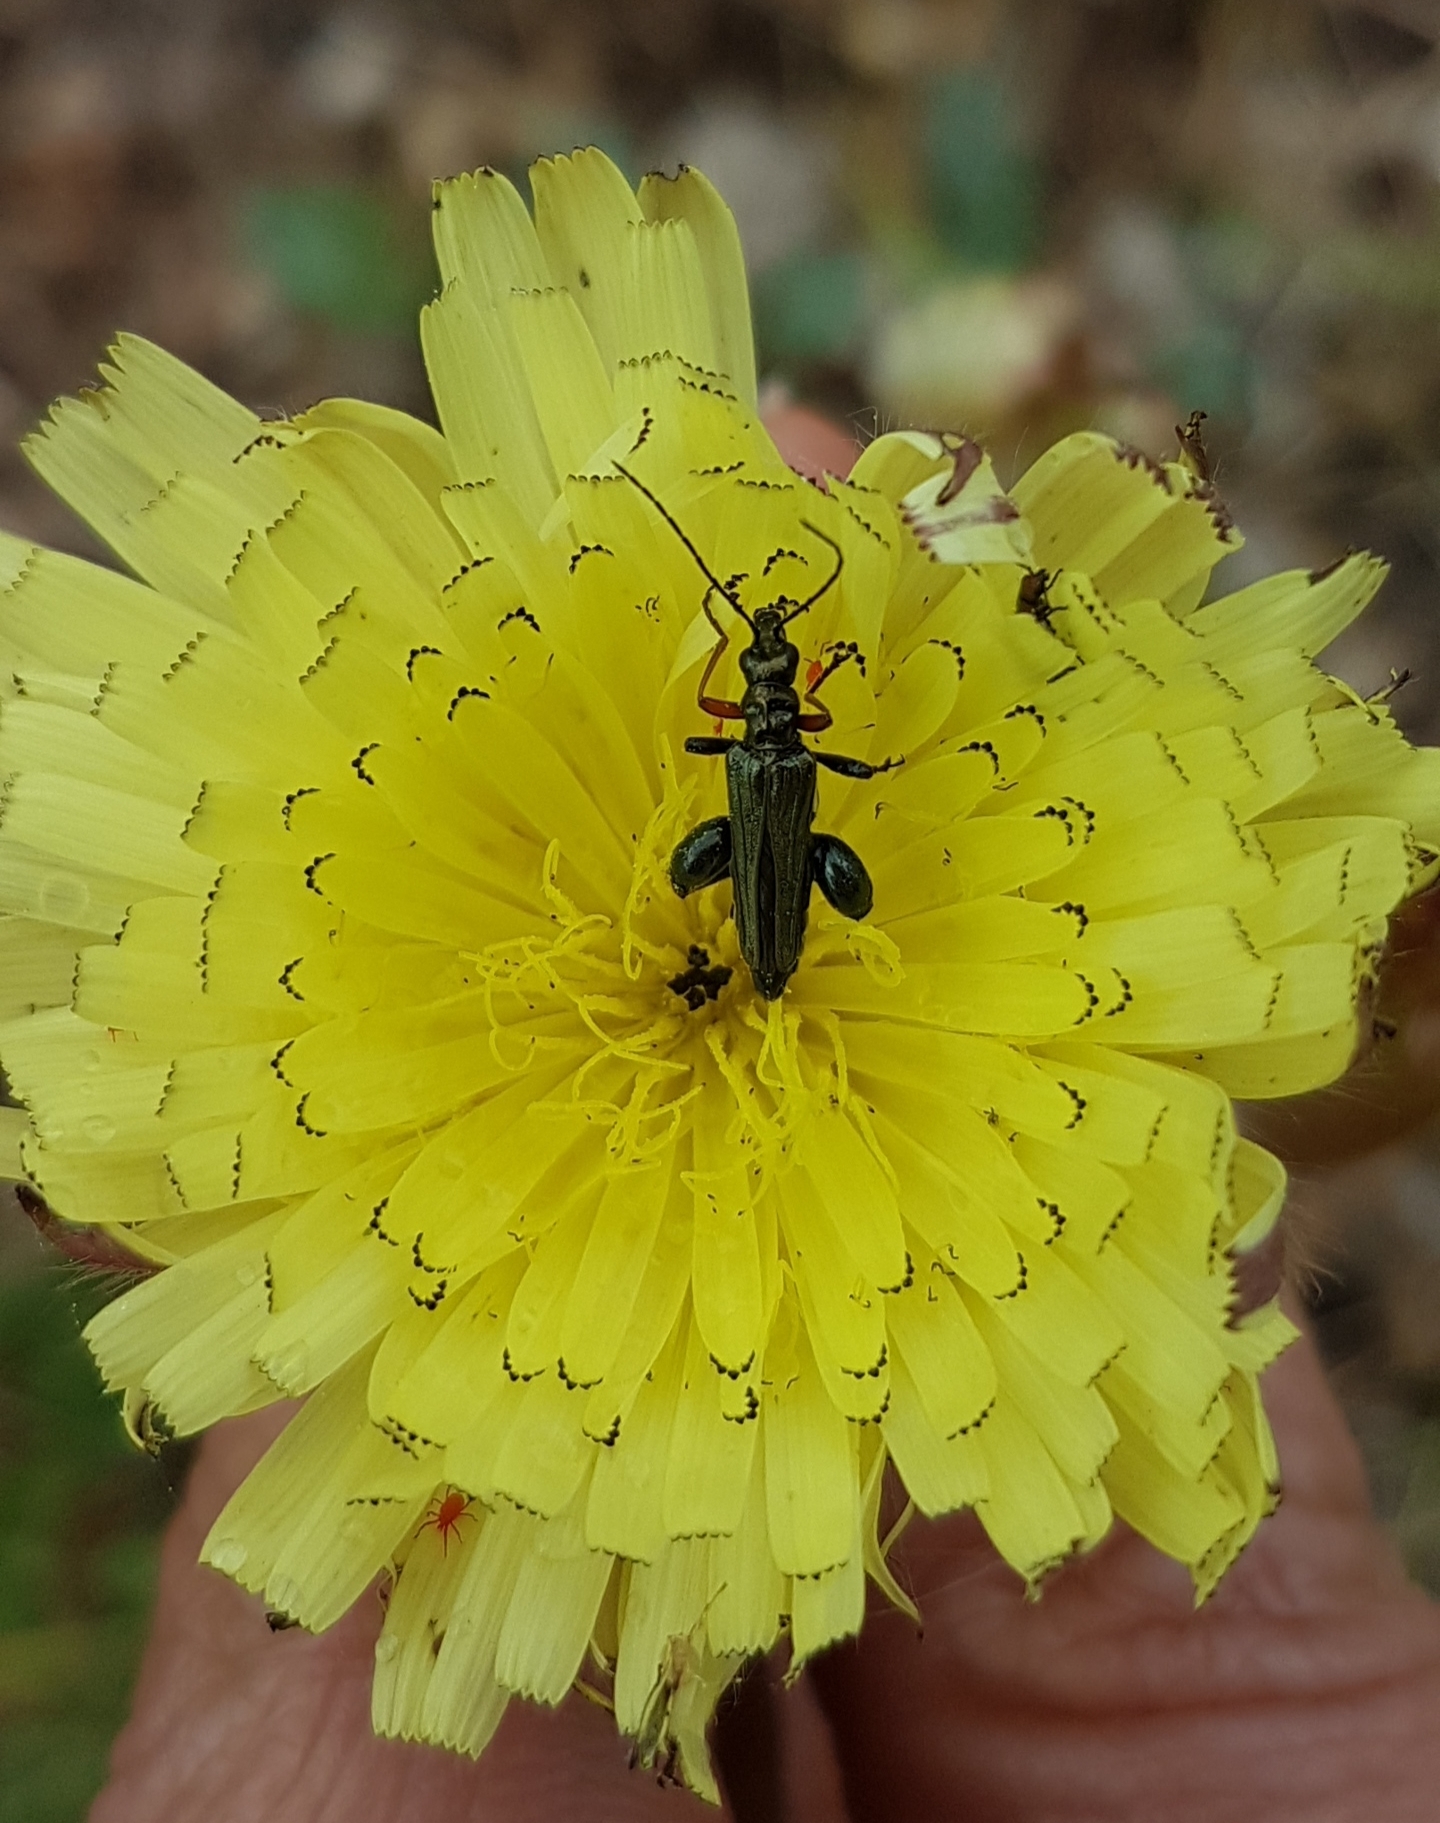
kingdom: Animalia
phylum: Arthropoda
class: Insecta
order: Coleoptera
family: Oedemeridae
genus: Oedemera
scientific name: Oedemera flavipes
